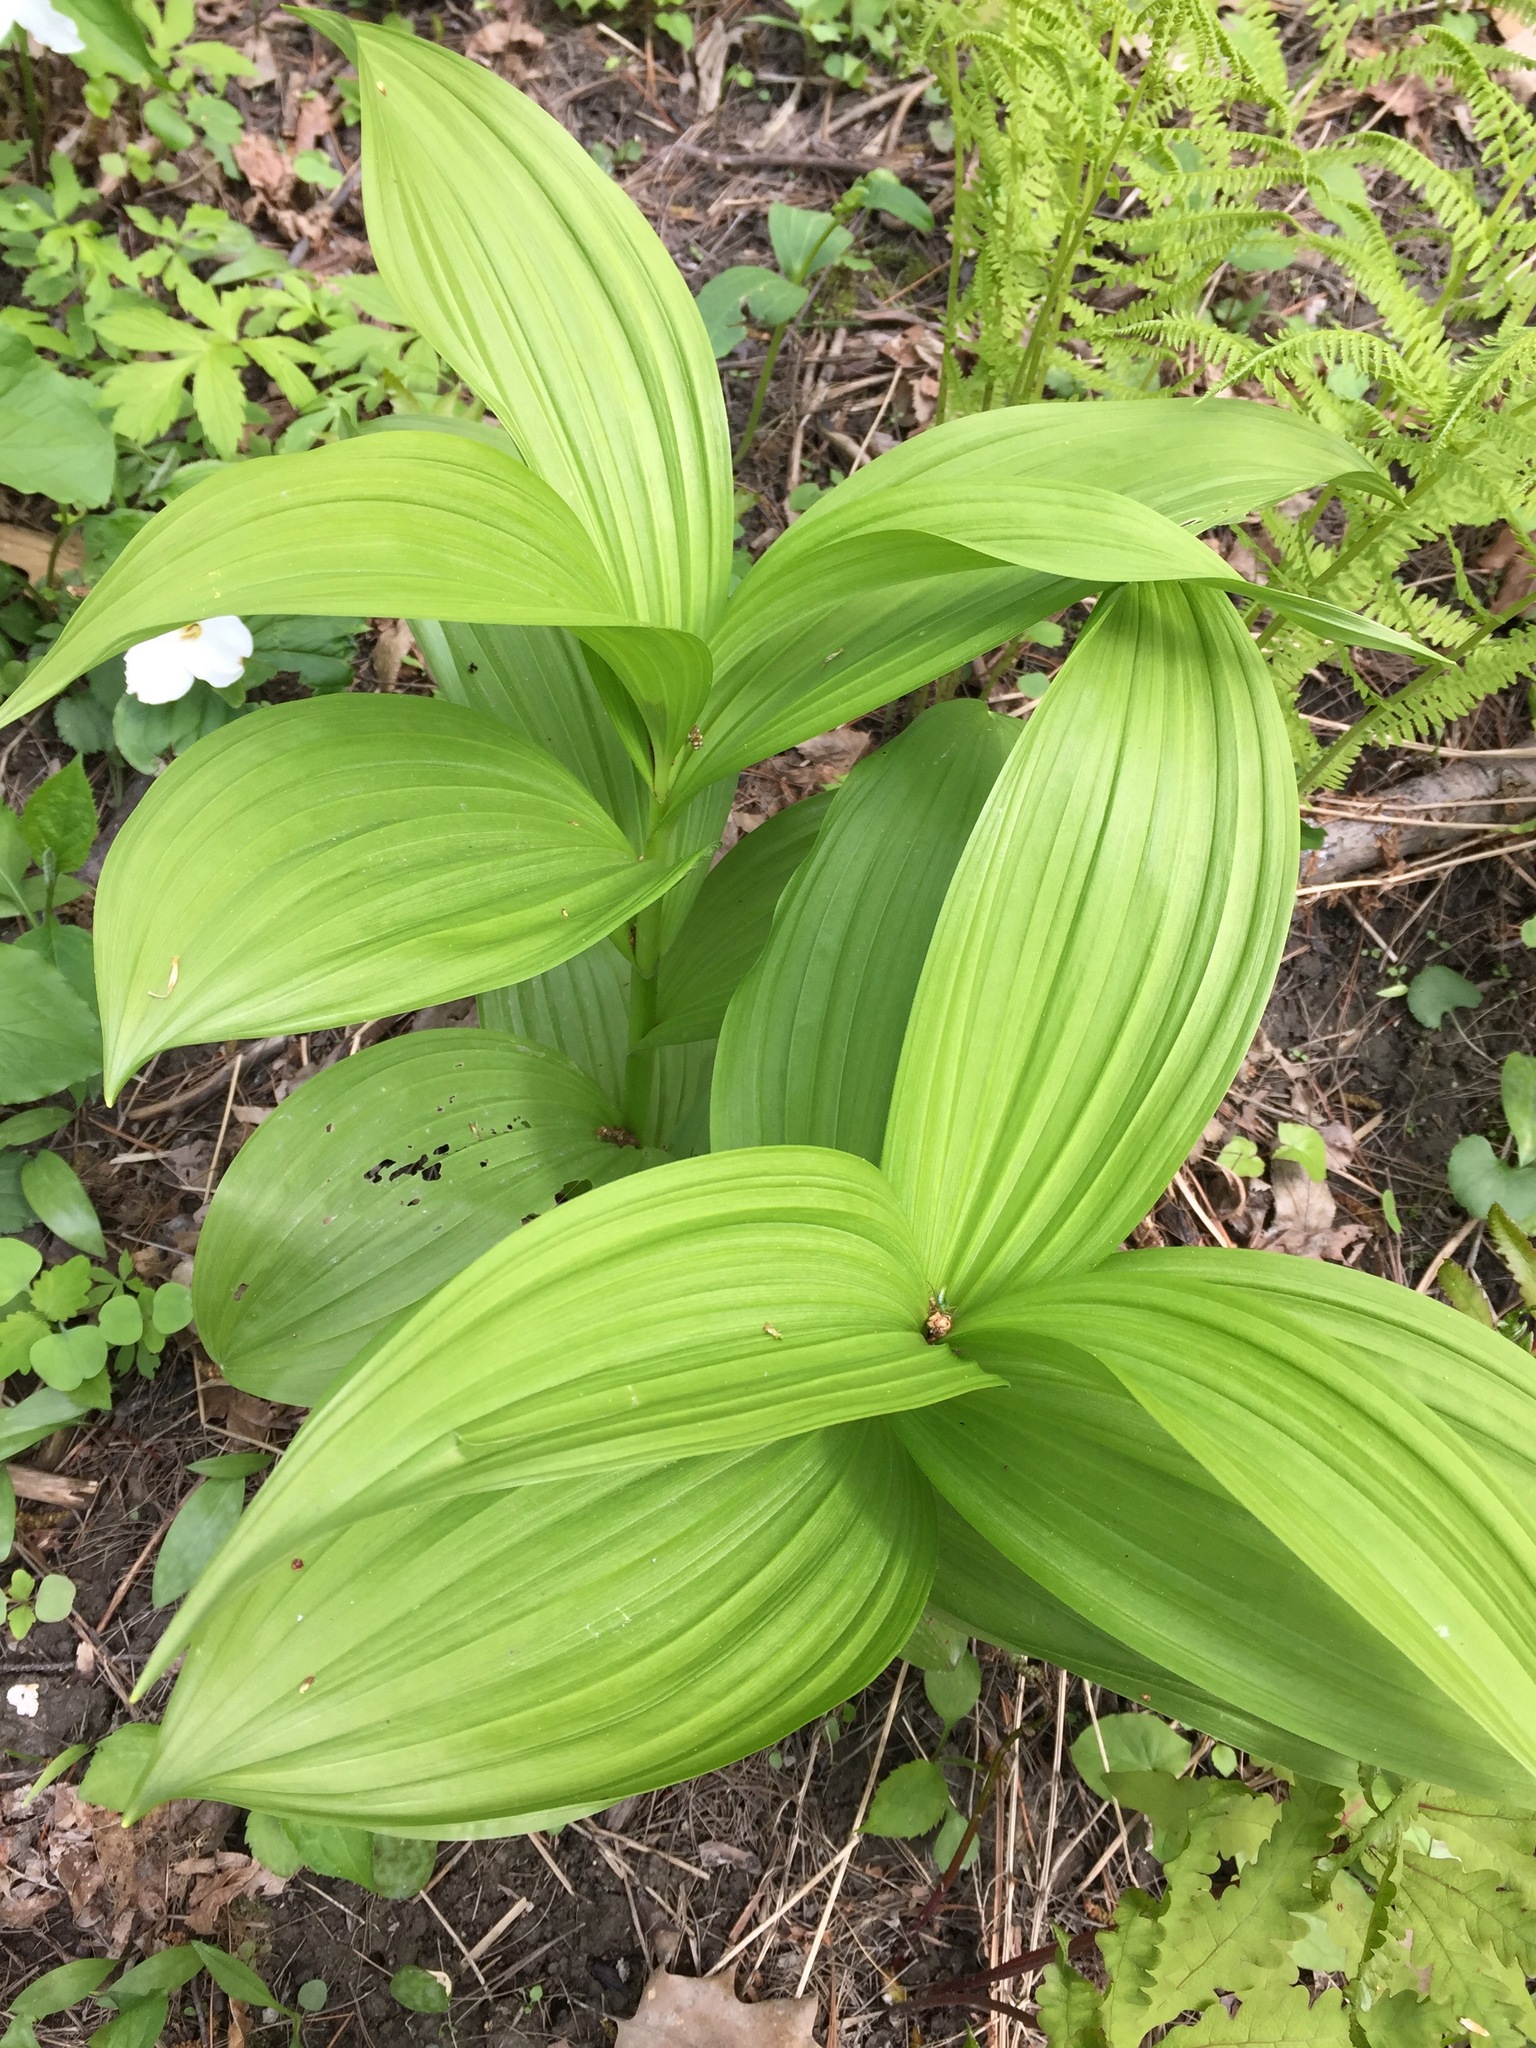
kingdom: Plantae
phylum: Tracheophyta
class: Liliopsida
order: Liliales
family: Melanthiaceae
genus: Veratrum
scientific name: Veratrum viride
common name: American false hellebore
